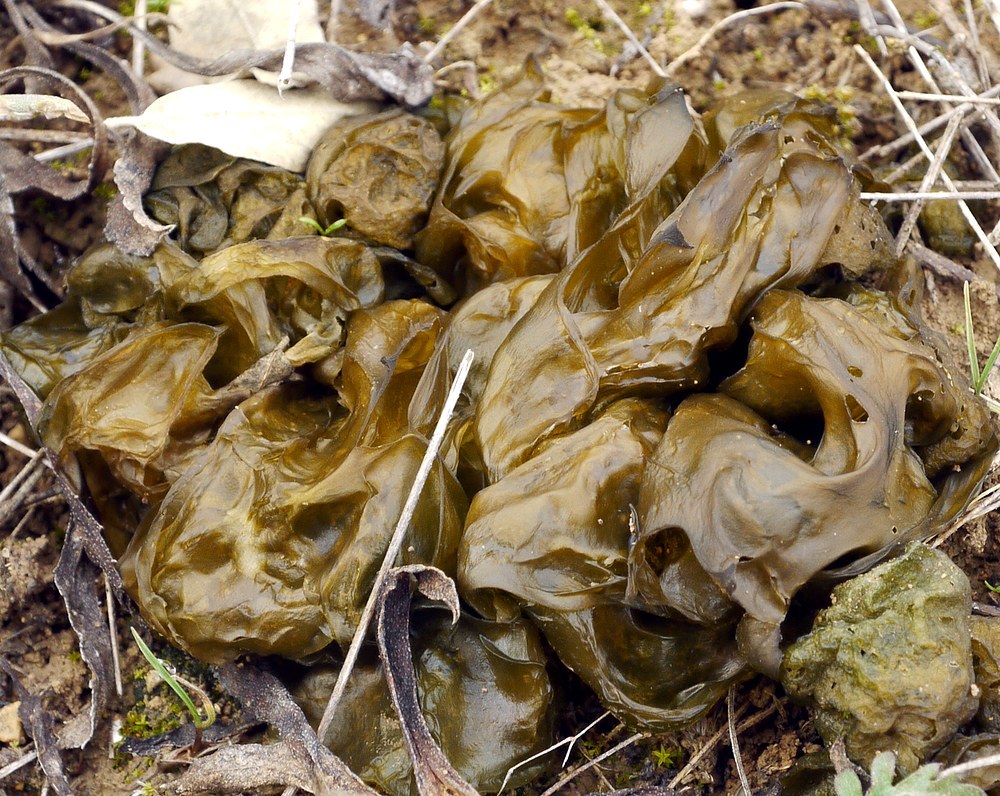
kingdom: Bacteria
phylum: Cyanobacteria
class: Cyanobacteriia
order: Cyanobacteriales
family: Nostocaceae
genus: Nostoc
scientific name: Nostoc commune
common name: Star jelly
